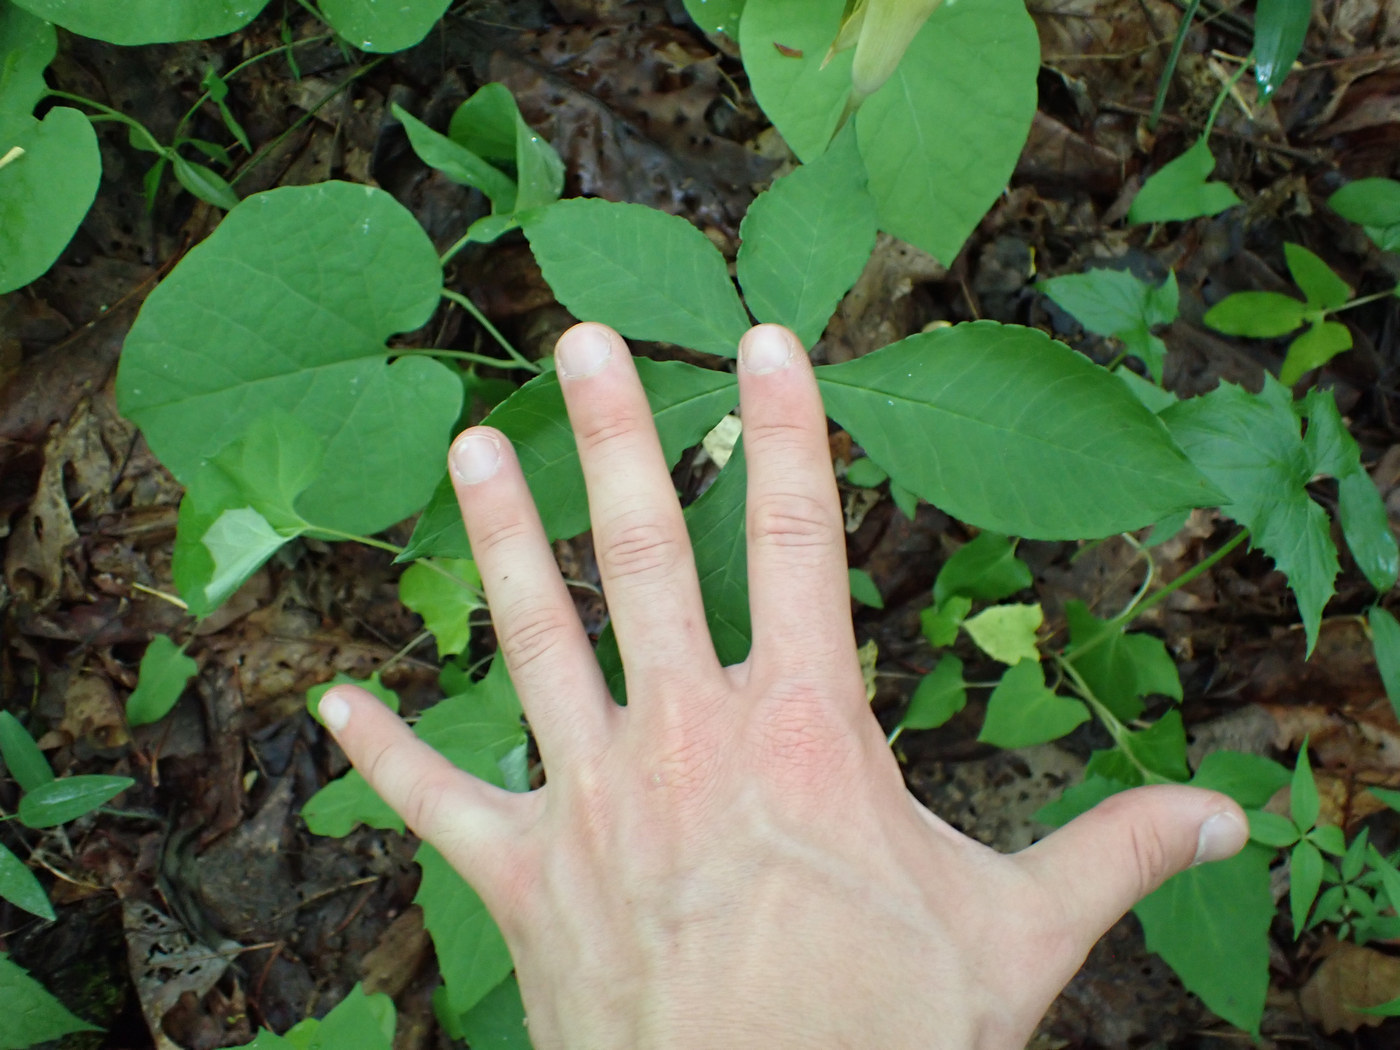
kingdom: Plantae
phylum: Tracheophyta
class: Liliopsida
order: Alismatales
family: Araceae
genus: Arisaema
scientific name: Arisaema quinatum
